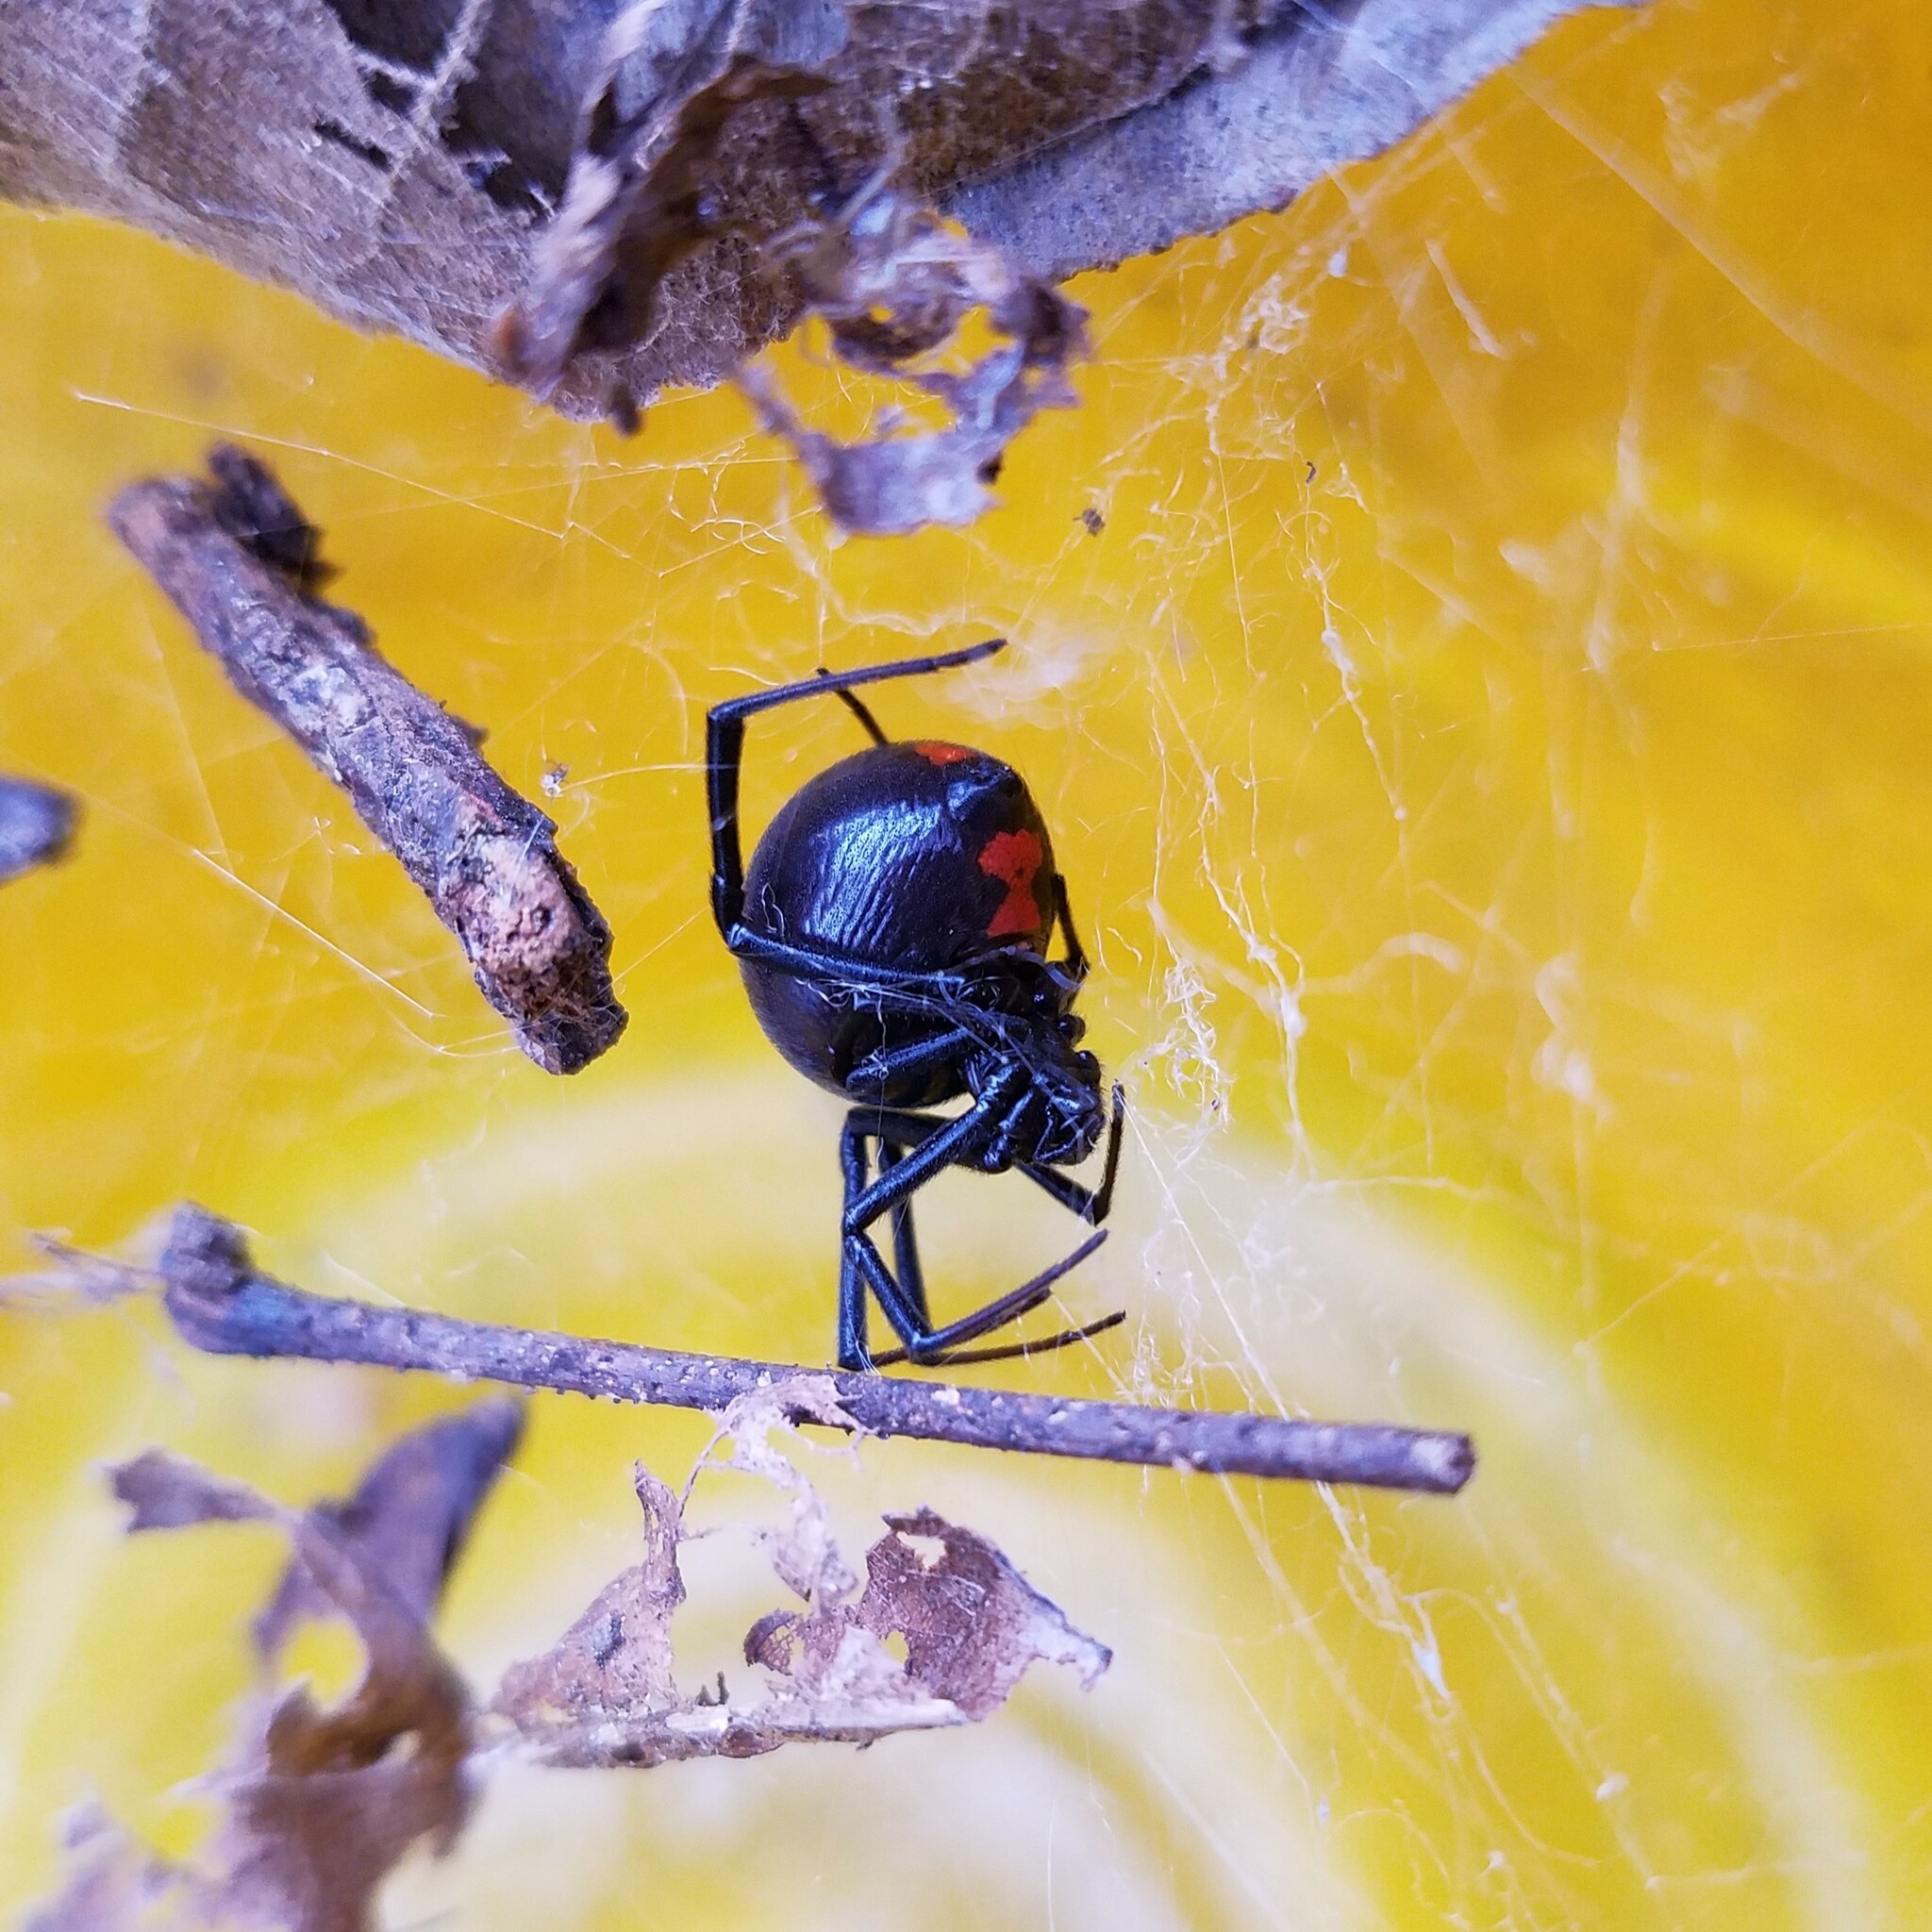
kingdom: Animalia
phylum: Arthropoda
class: Arachnida
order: Araneae
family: Theridiidae
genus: Latrodectus
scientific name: Latrodectus mactans
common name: Cobweb spiders
